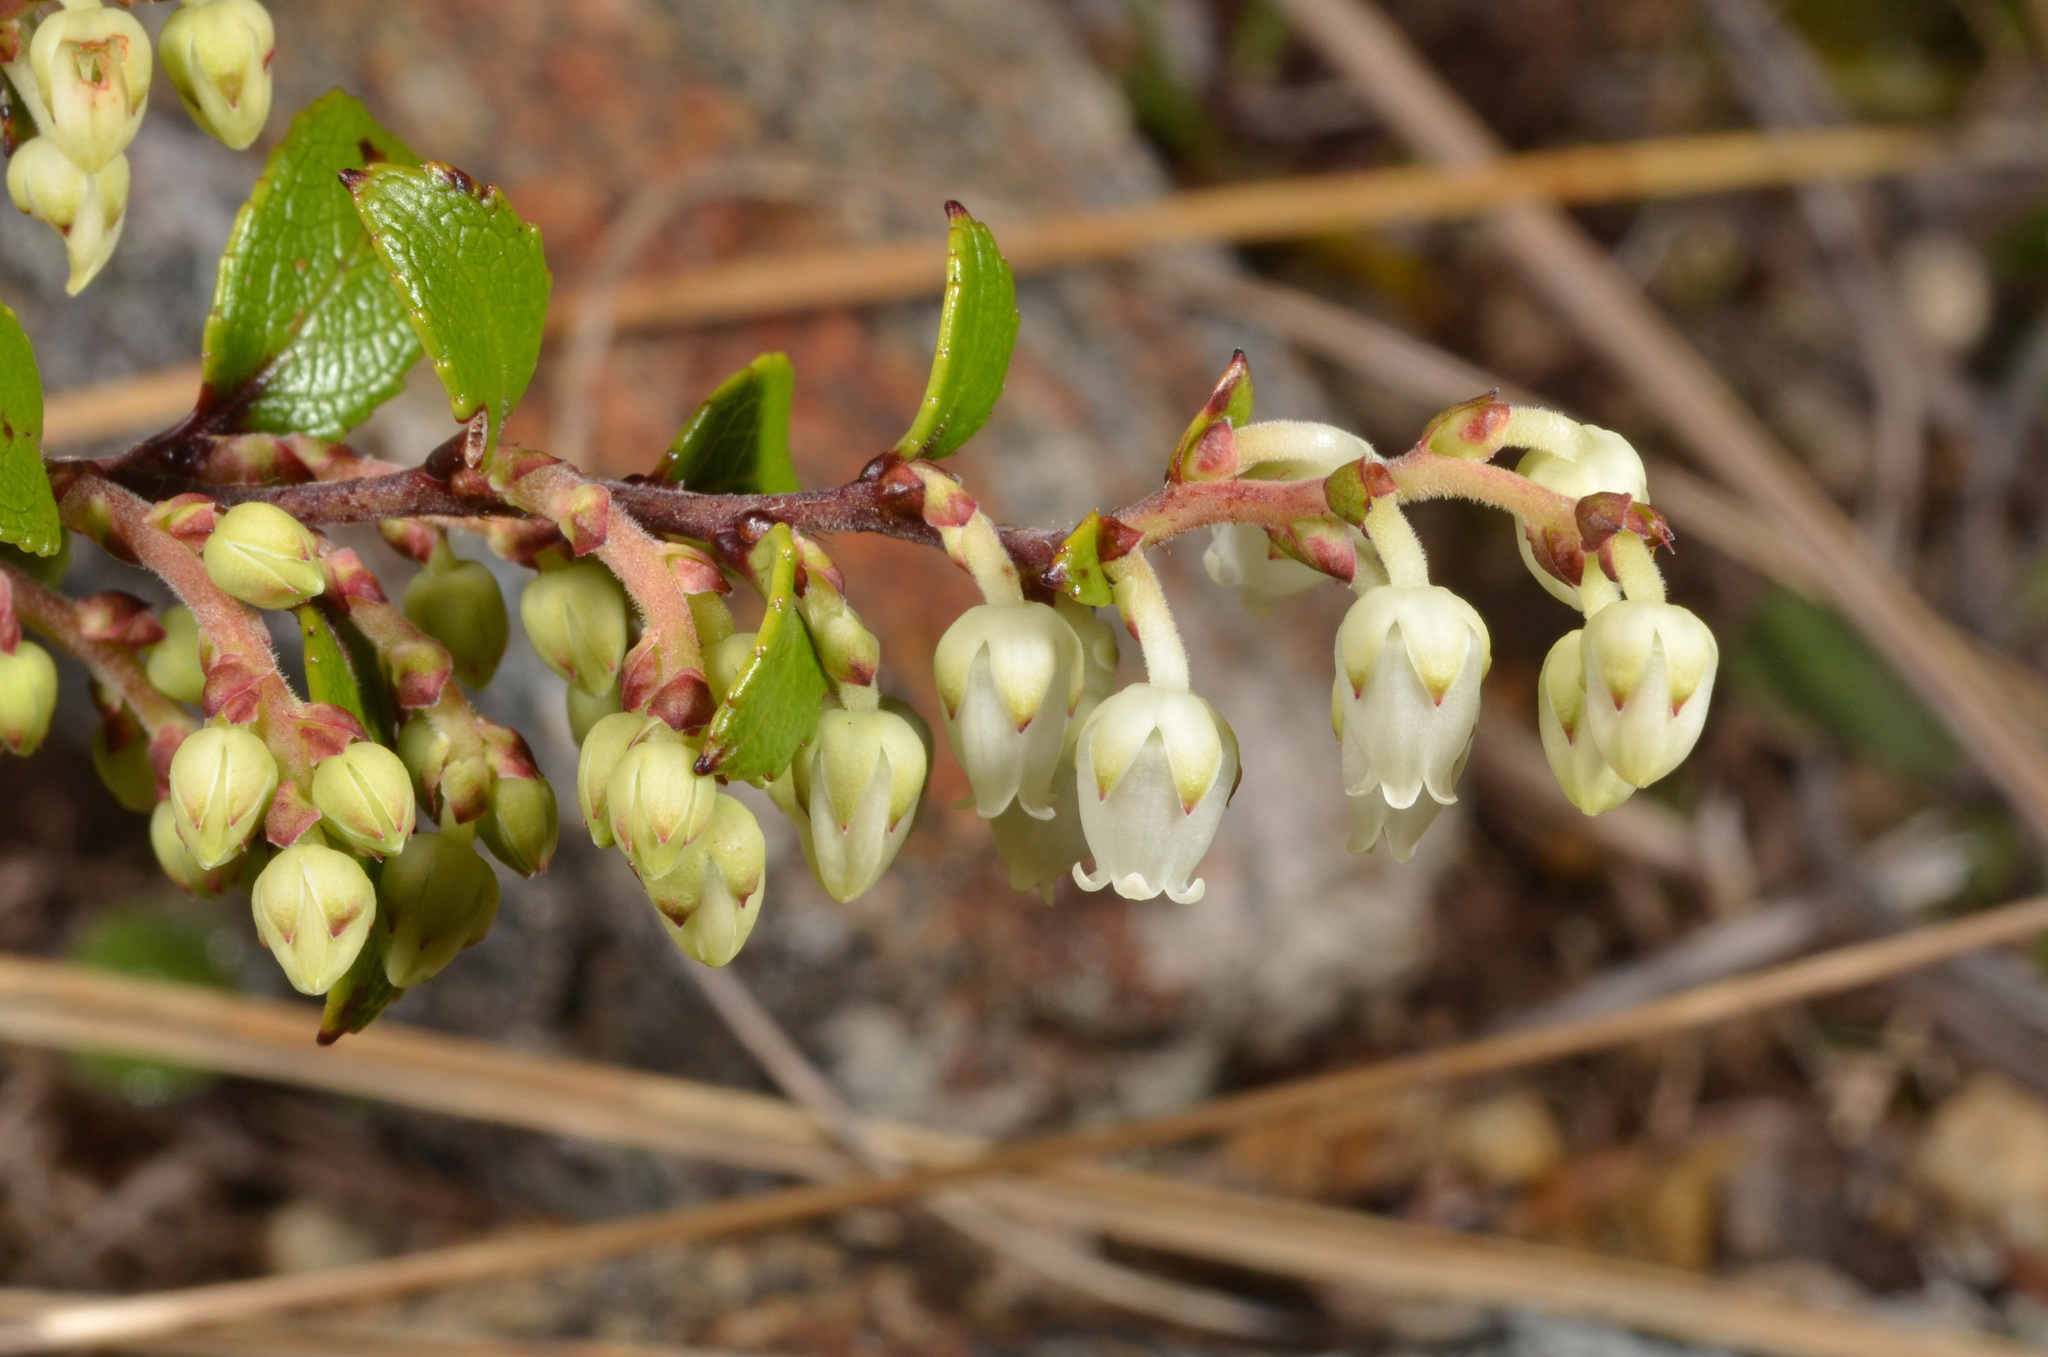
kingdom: Plantae
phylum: Tracheophyta
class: Magnoliopsida
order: Ericales
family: Ericaceae
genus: Gaultheria
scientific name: Gaultheria crassa
